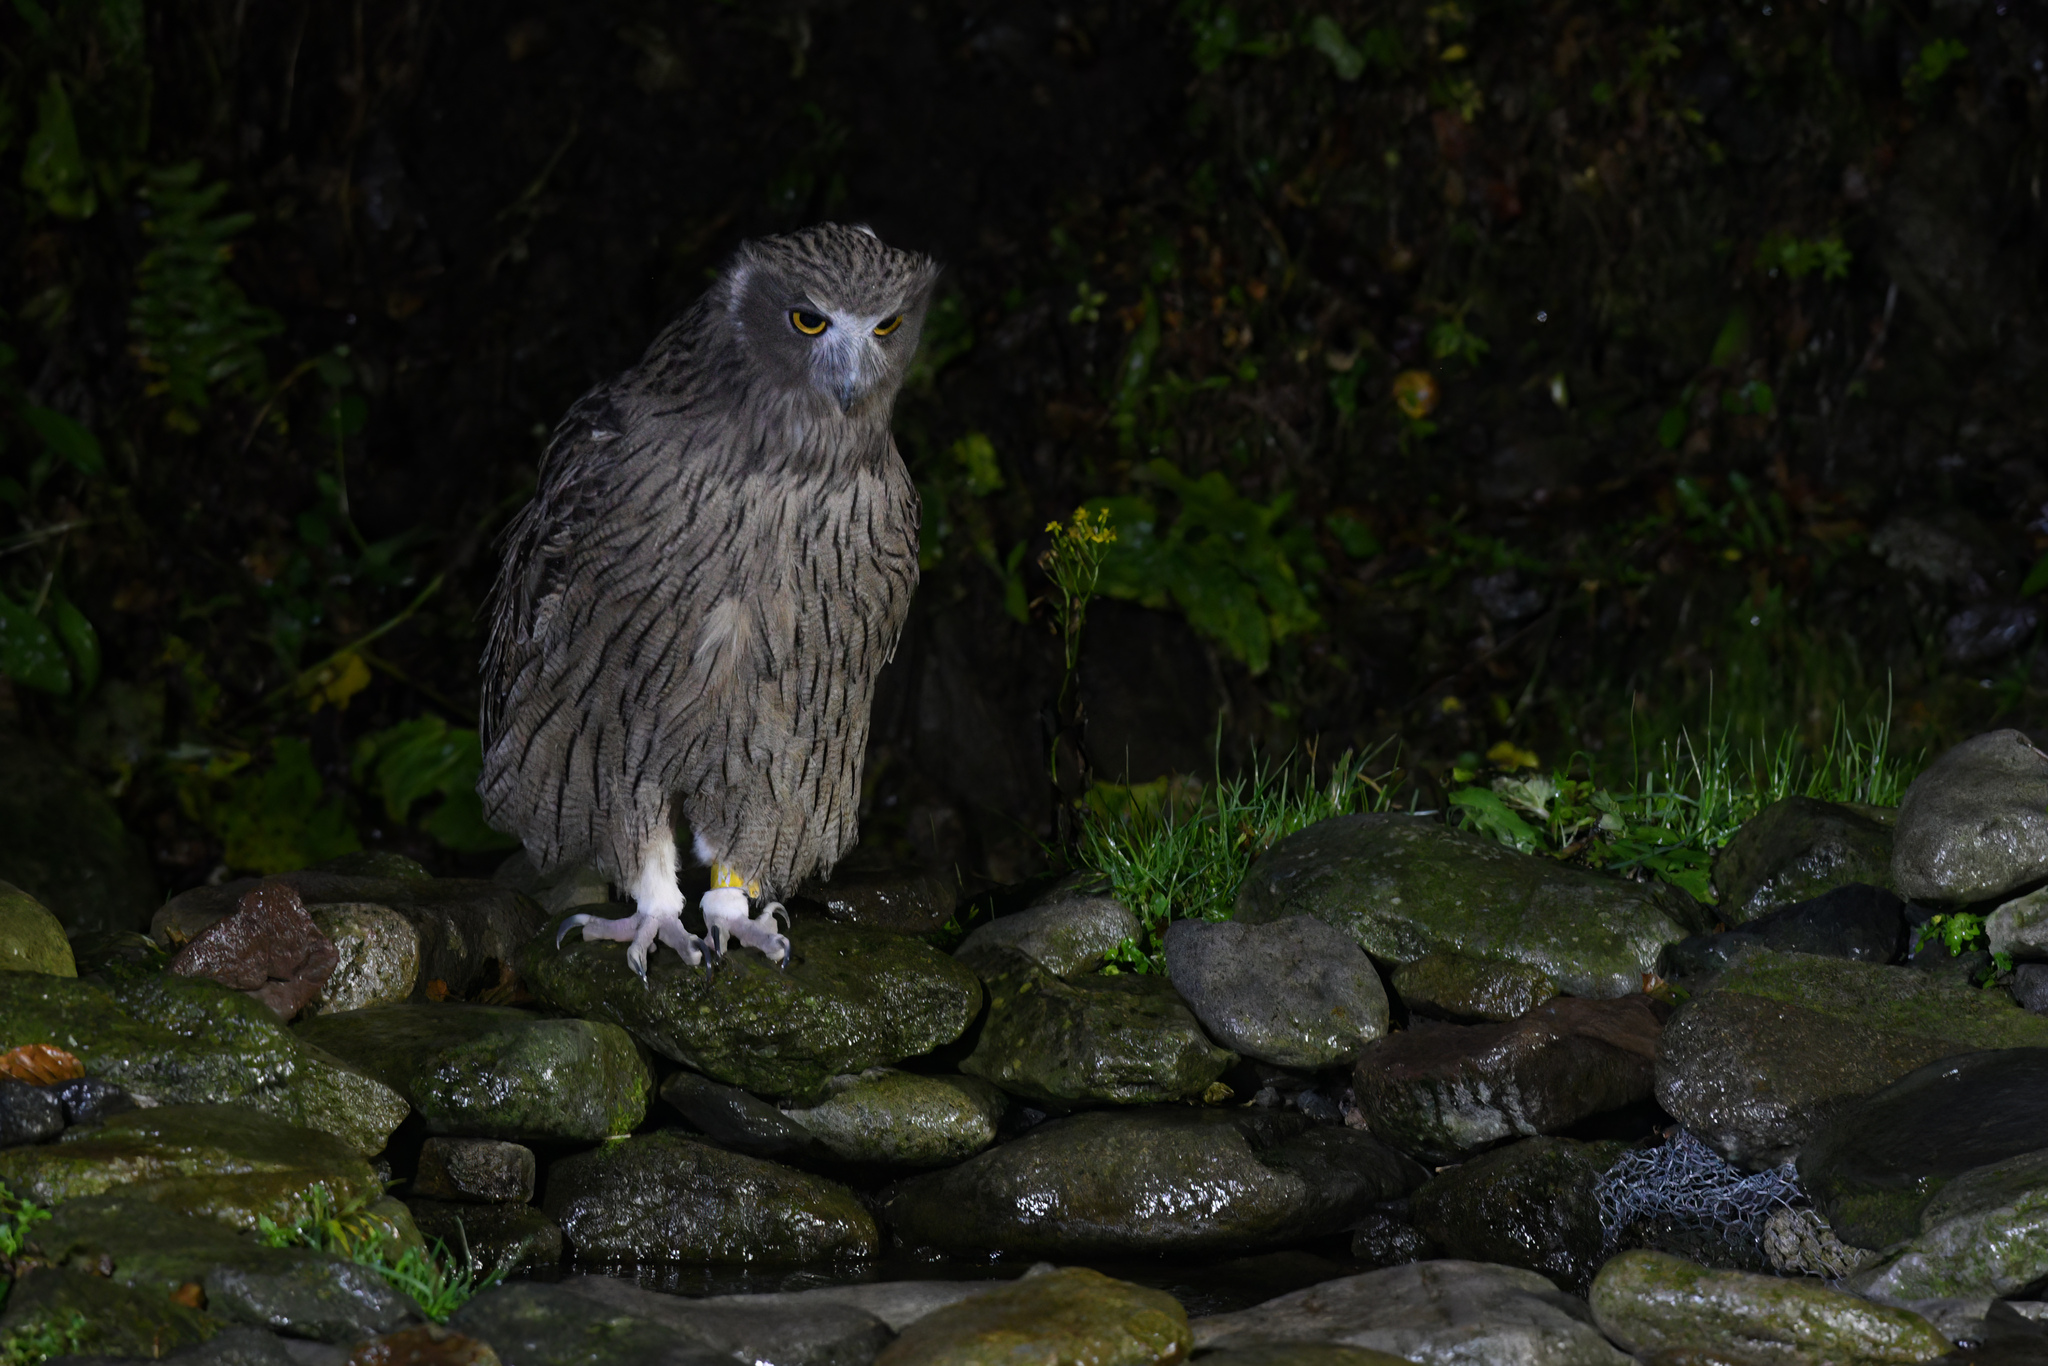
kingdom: Animalia
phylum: Chordata
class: Aves
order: Strigiformes
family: Strigidae
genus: Bubo
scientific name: Bubo blakistoni
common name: Blakiston's fish owl
